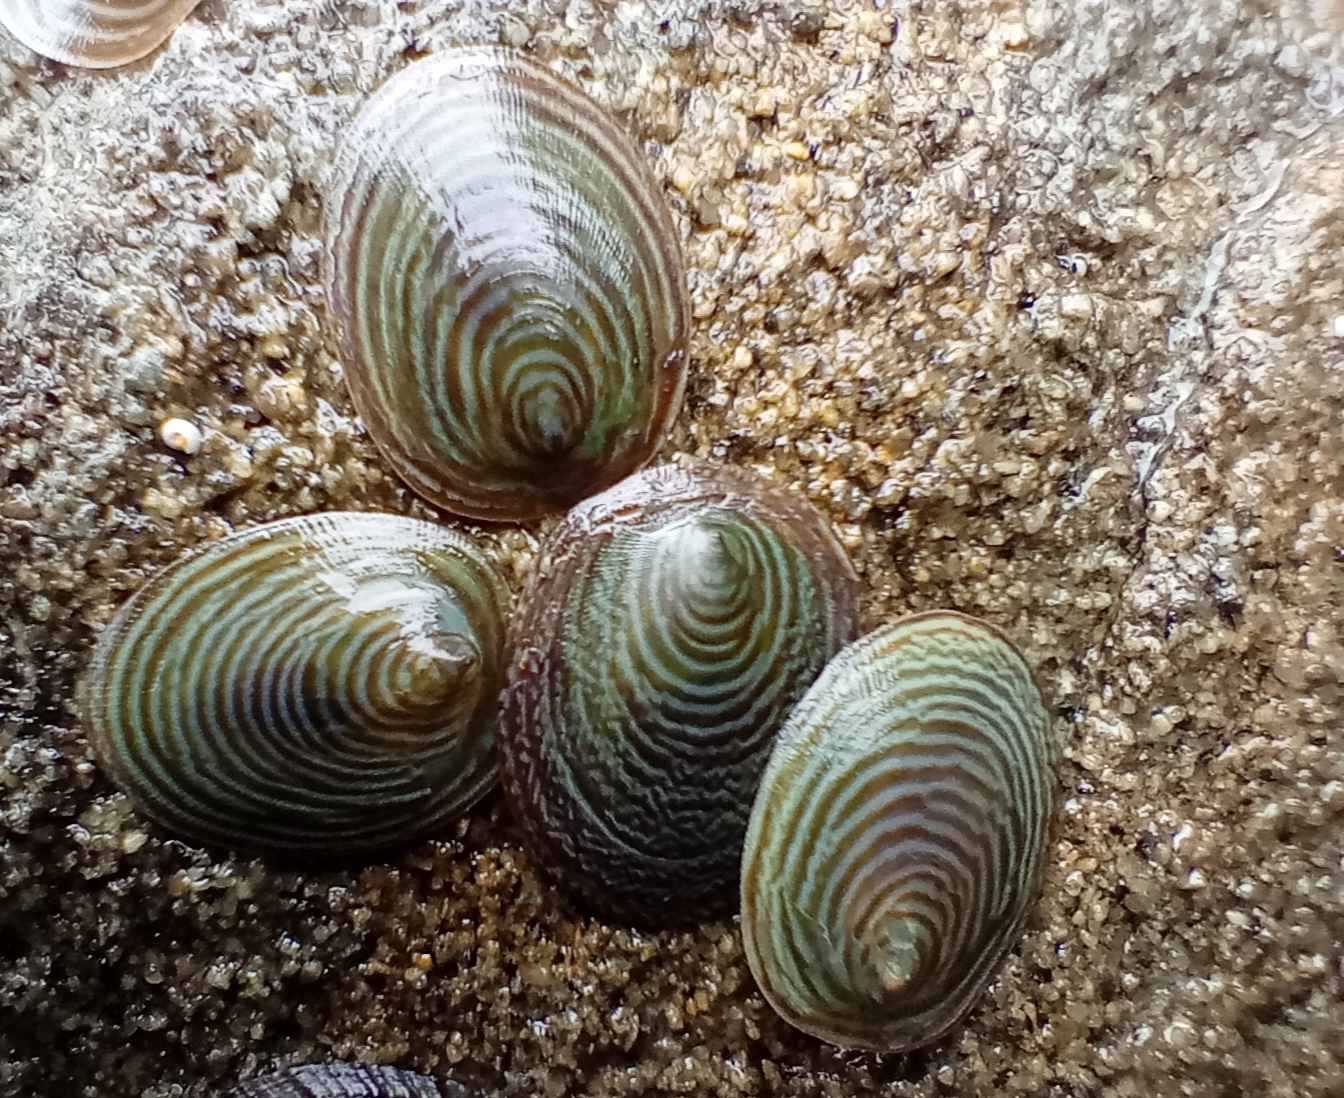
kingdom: Animalia
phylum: Mollusca
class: Gastropoda
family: Lottiidae
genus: Atalacmea
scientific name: Atalacmea fragilis
